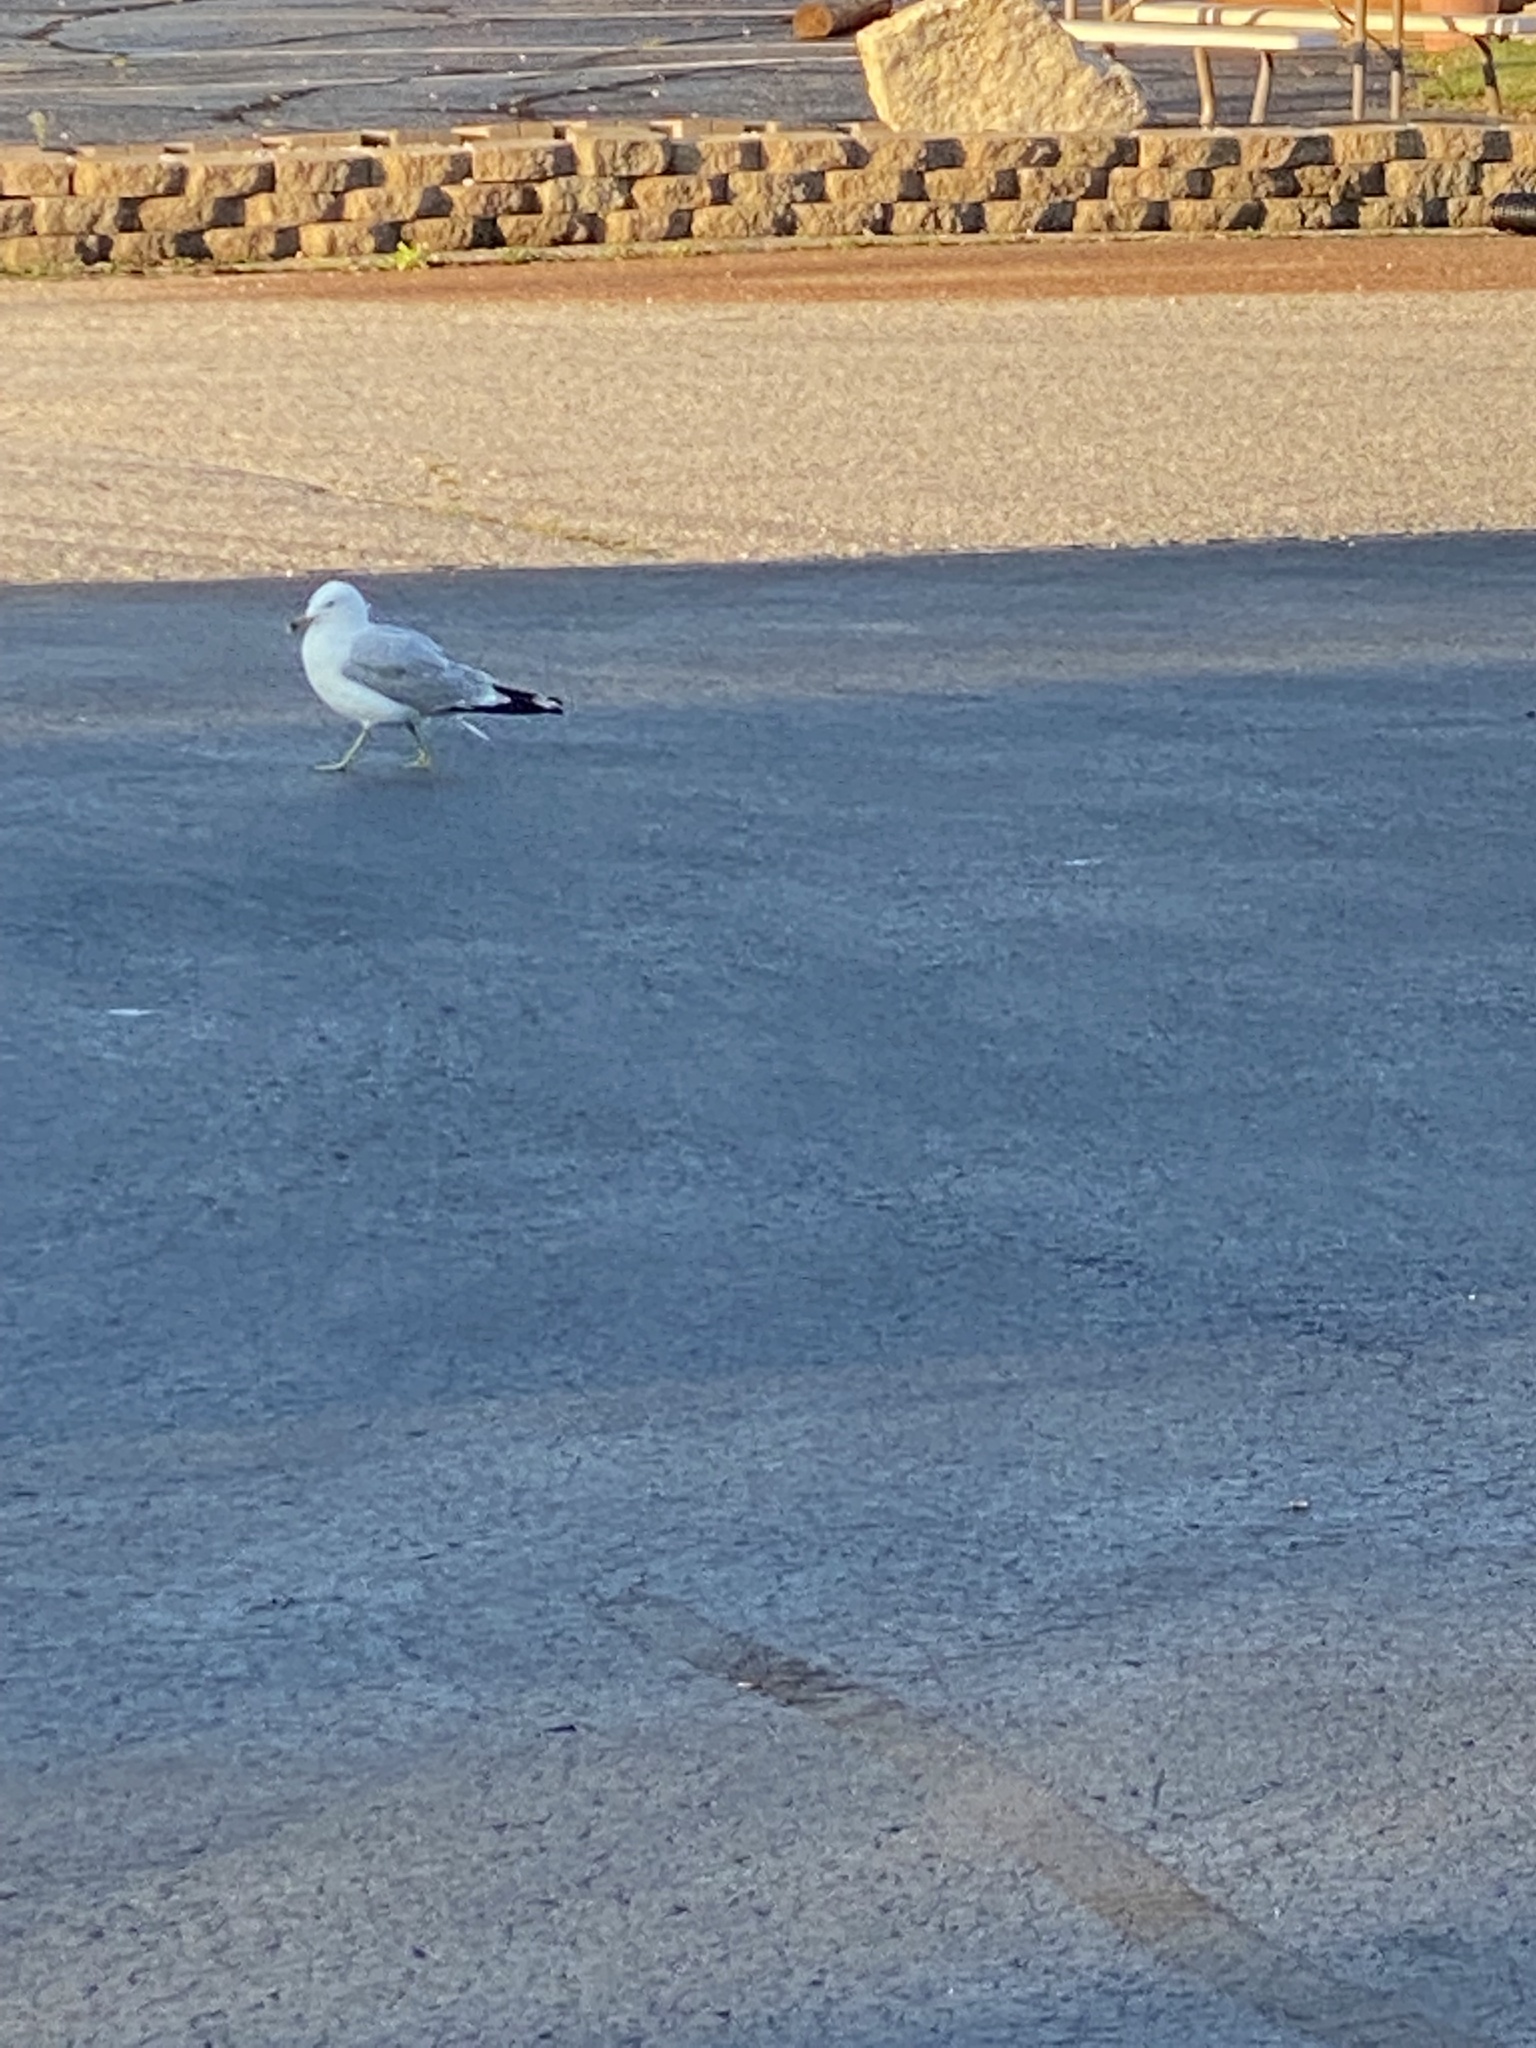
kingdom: Animalia
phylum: Chordata
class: Aves
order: Charadriiformes
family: Laridae
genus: Larus
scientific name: Larus delawarensis
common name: Ring-billed gull
